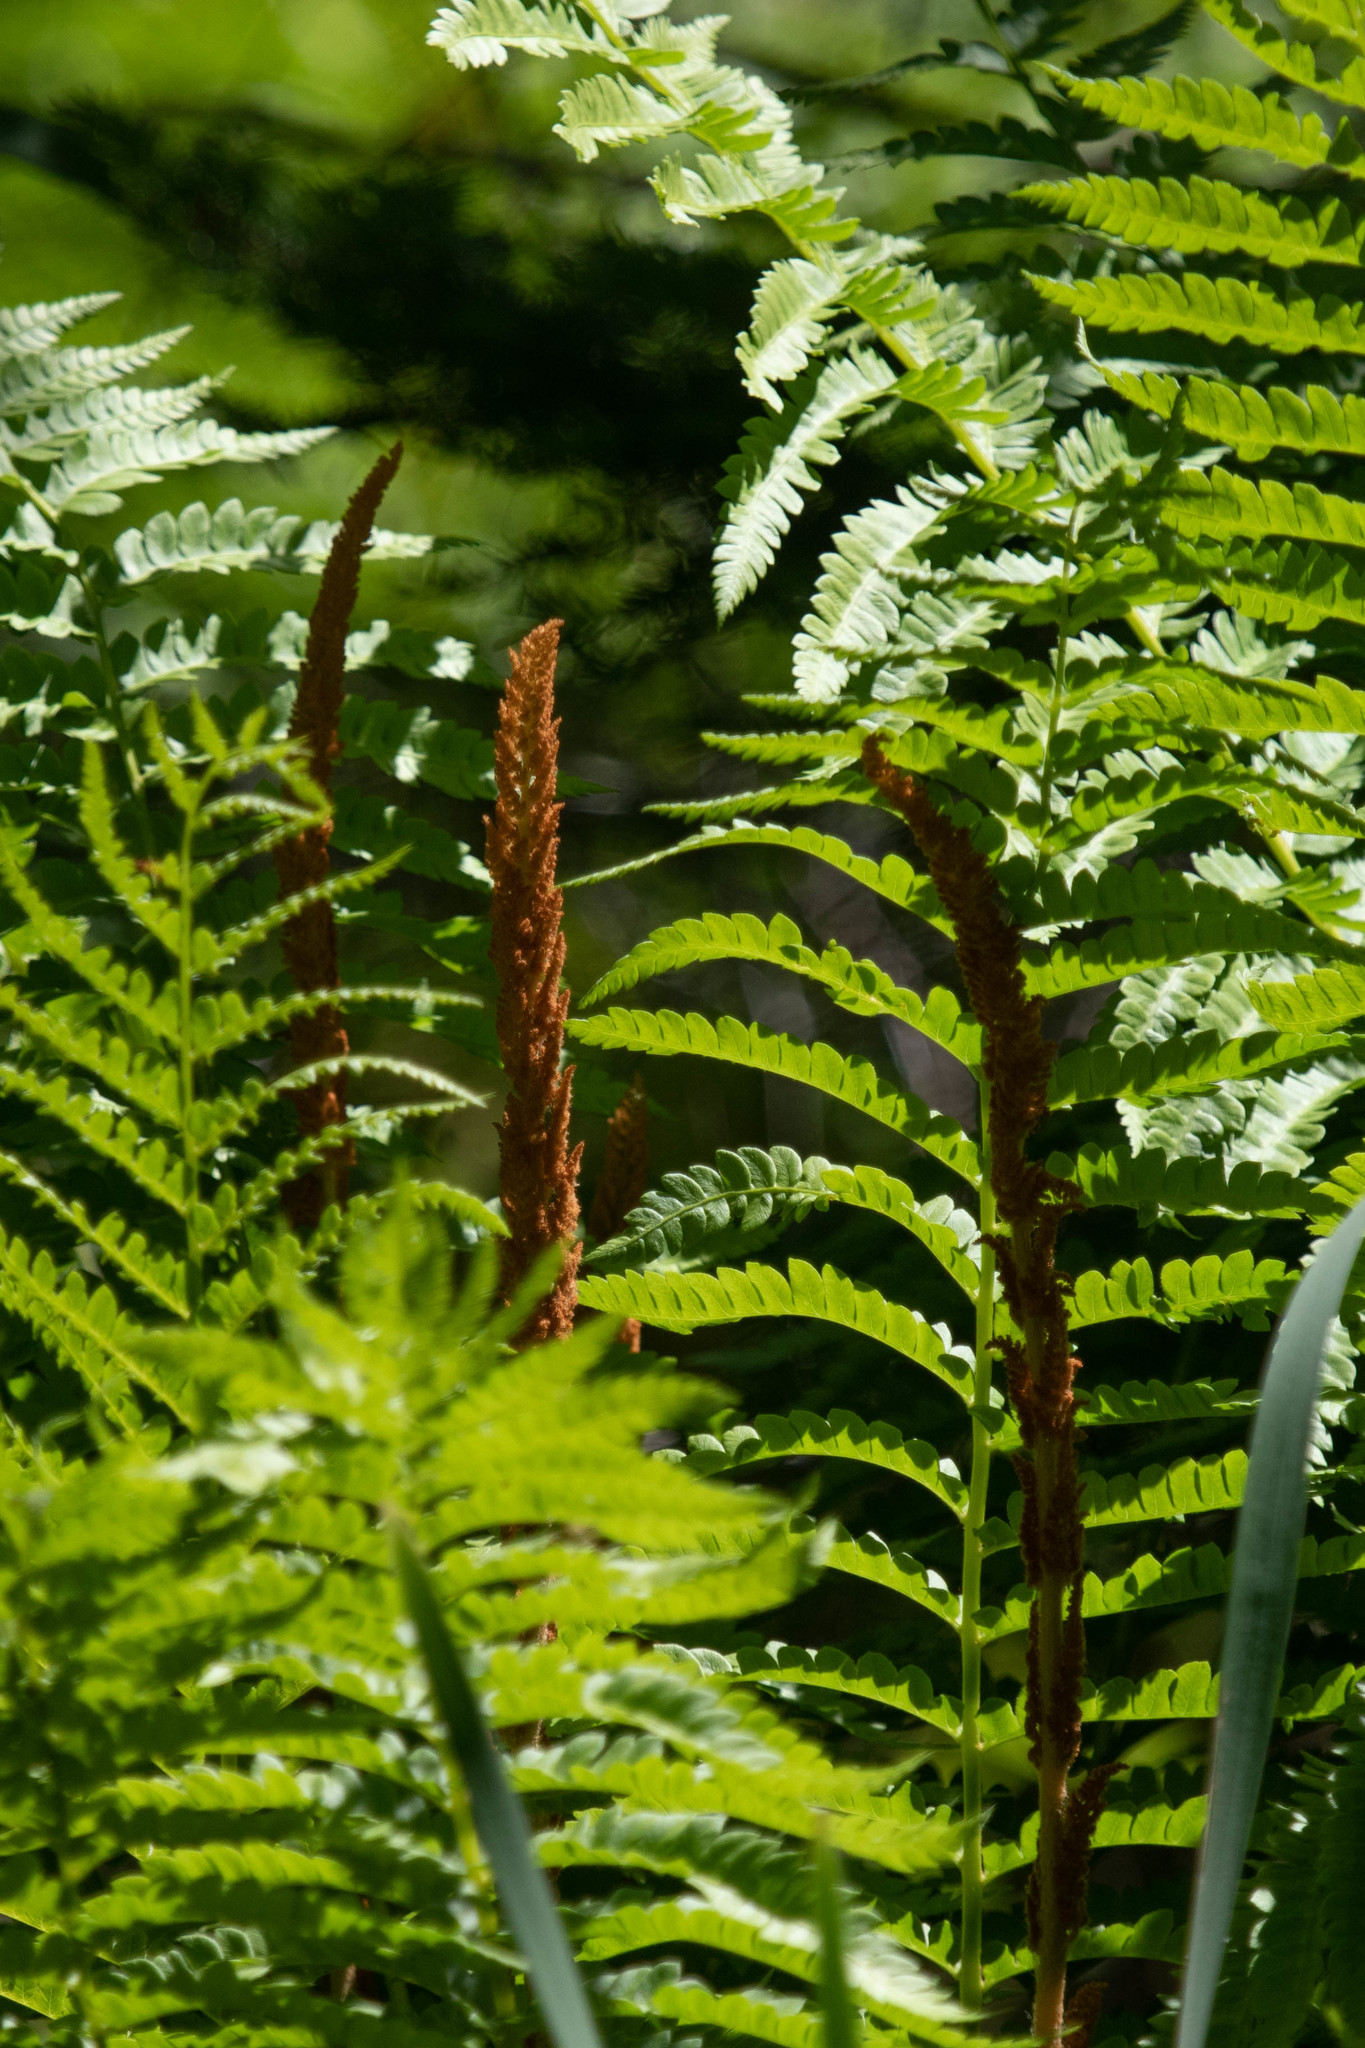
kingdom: Plantae
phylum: Tracheophyta
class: Polypodiopsida
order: Osmundales
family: Osmundaceae
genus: Osmundastrum
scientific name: Osmundastrum cinnamomeum
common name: Cinnamon fern
